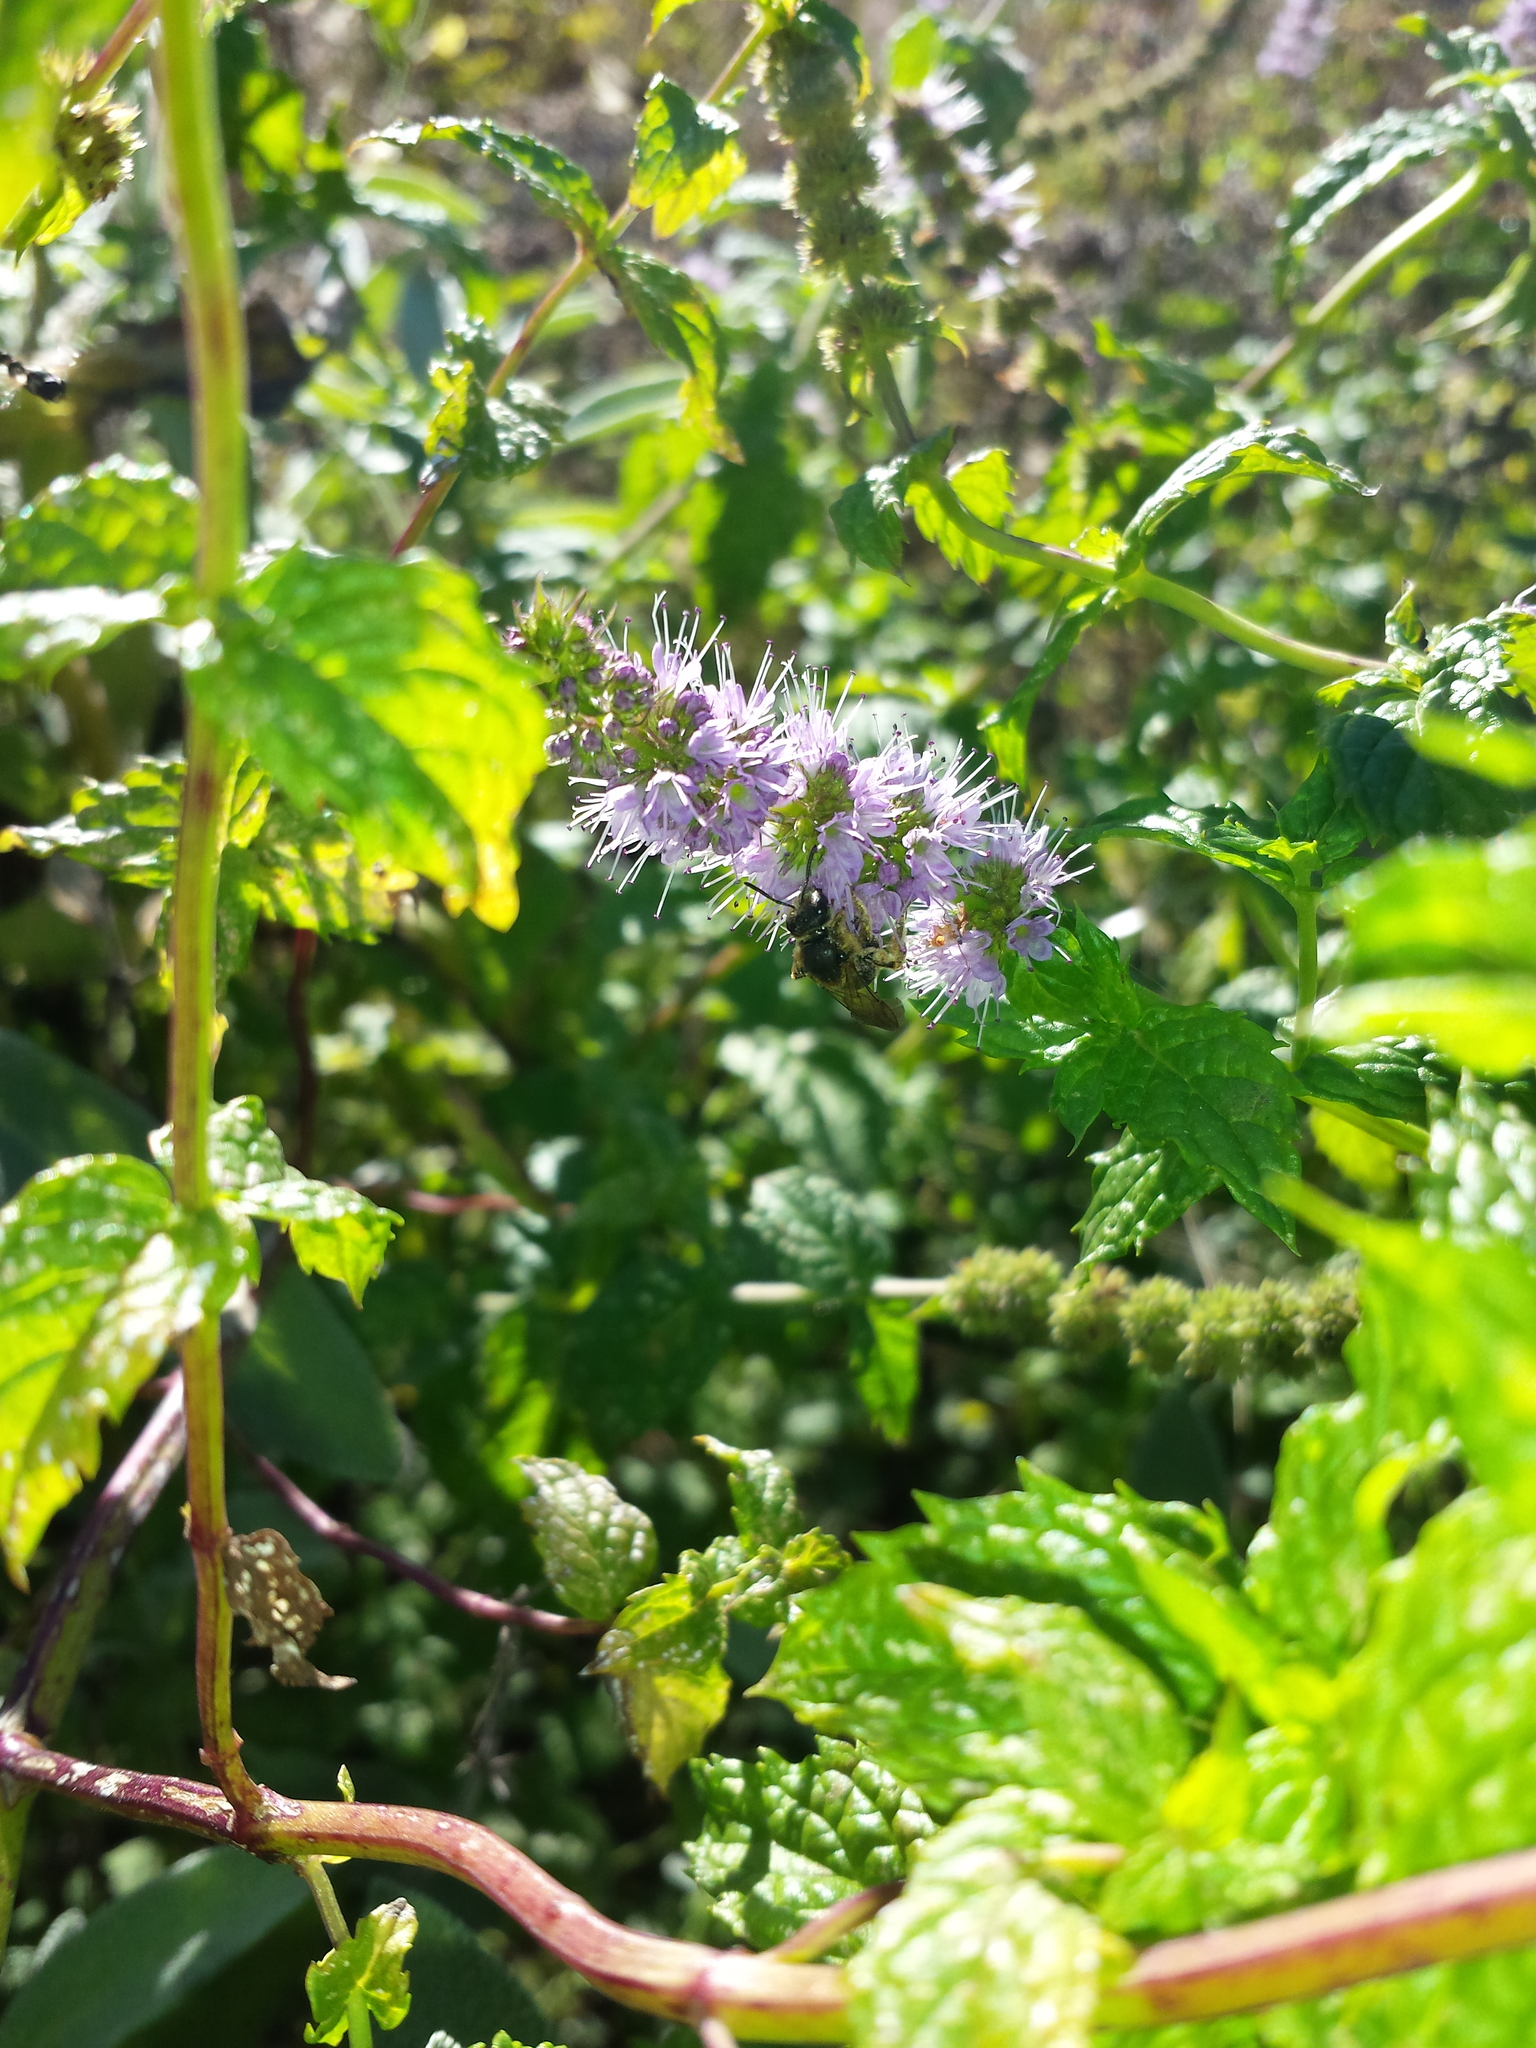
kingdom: Animalia
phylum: Arthropoda
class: Insecta
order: Hymenoptera
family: Halictidae
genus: Halictus
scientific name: Halictus rubicundus
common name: Orange-legged furrow bee
